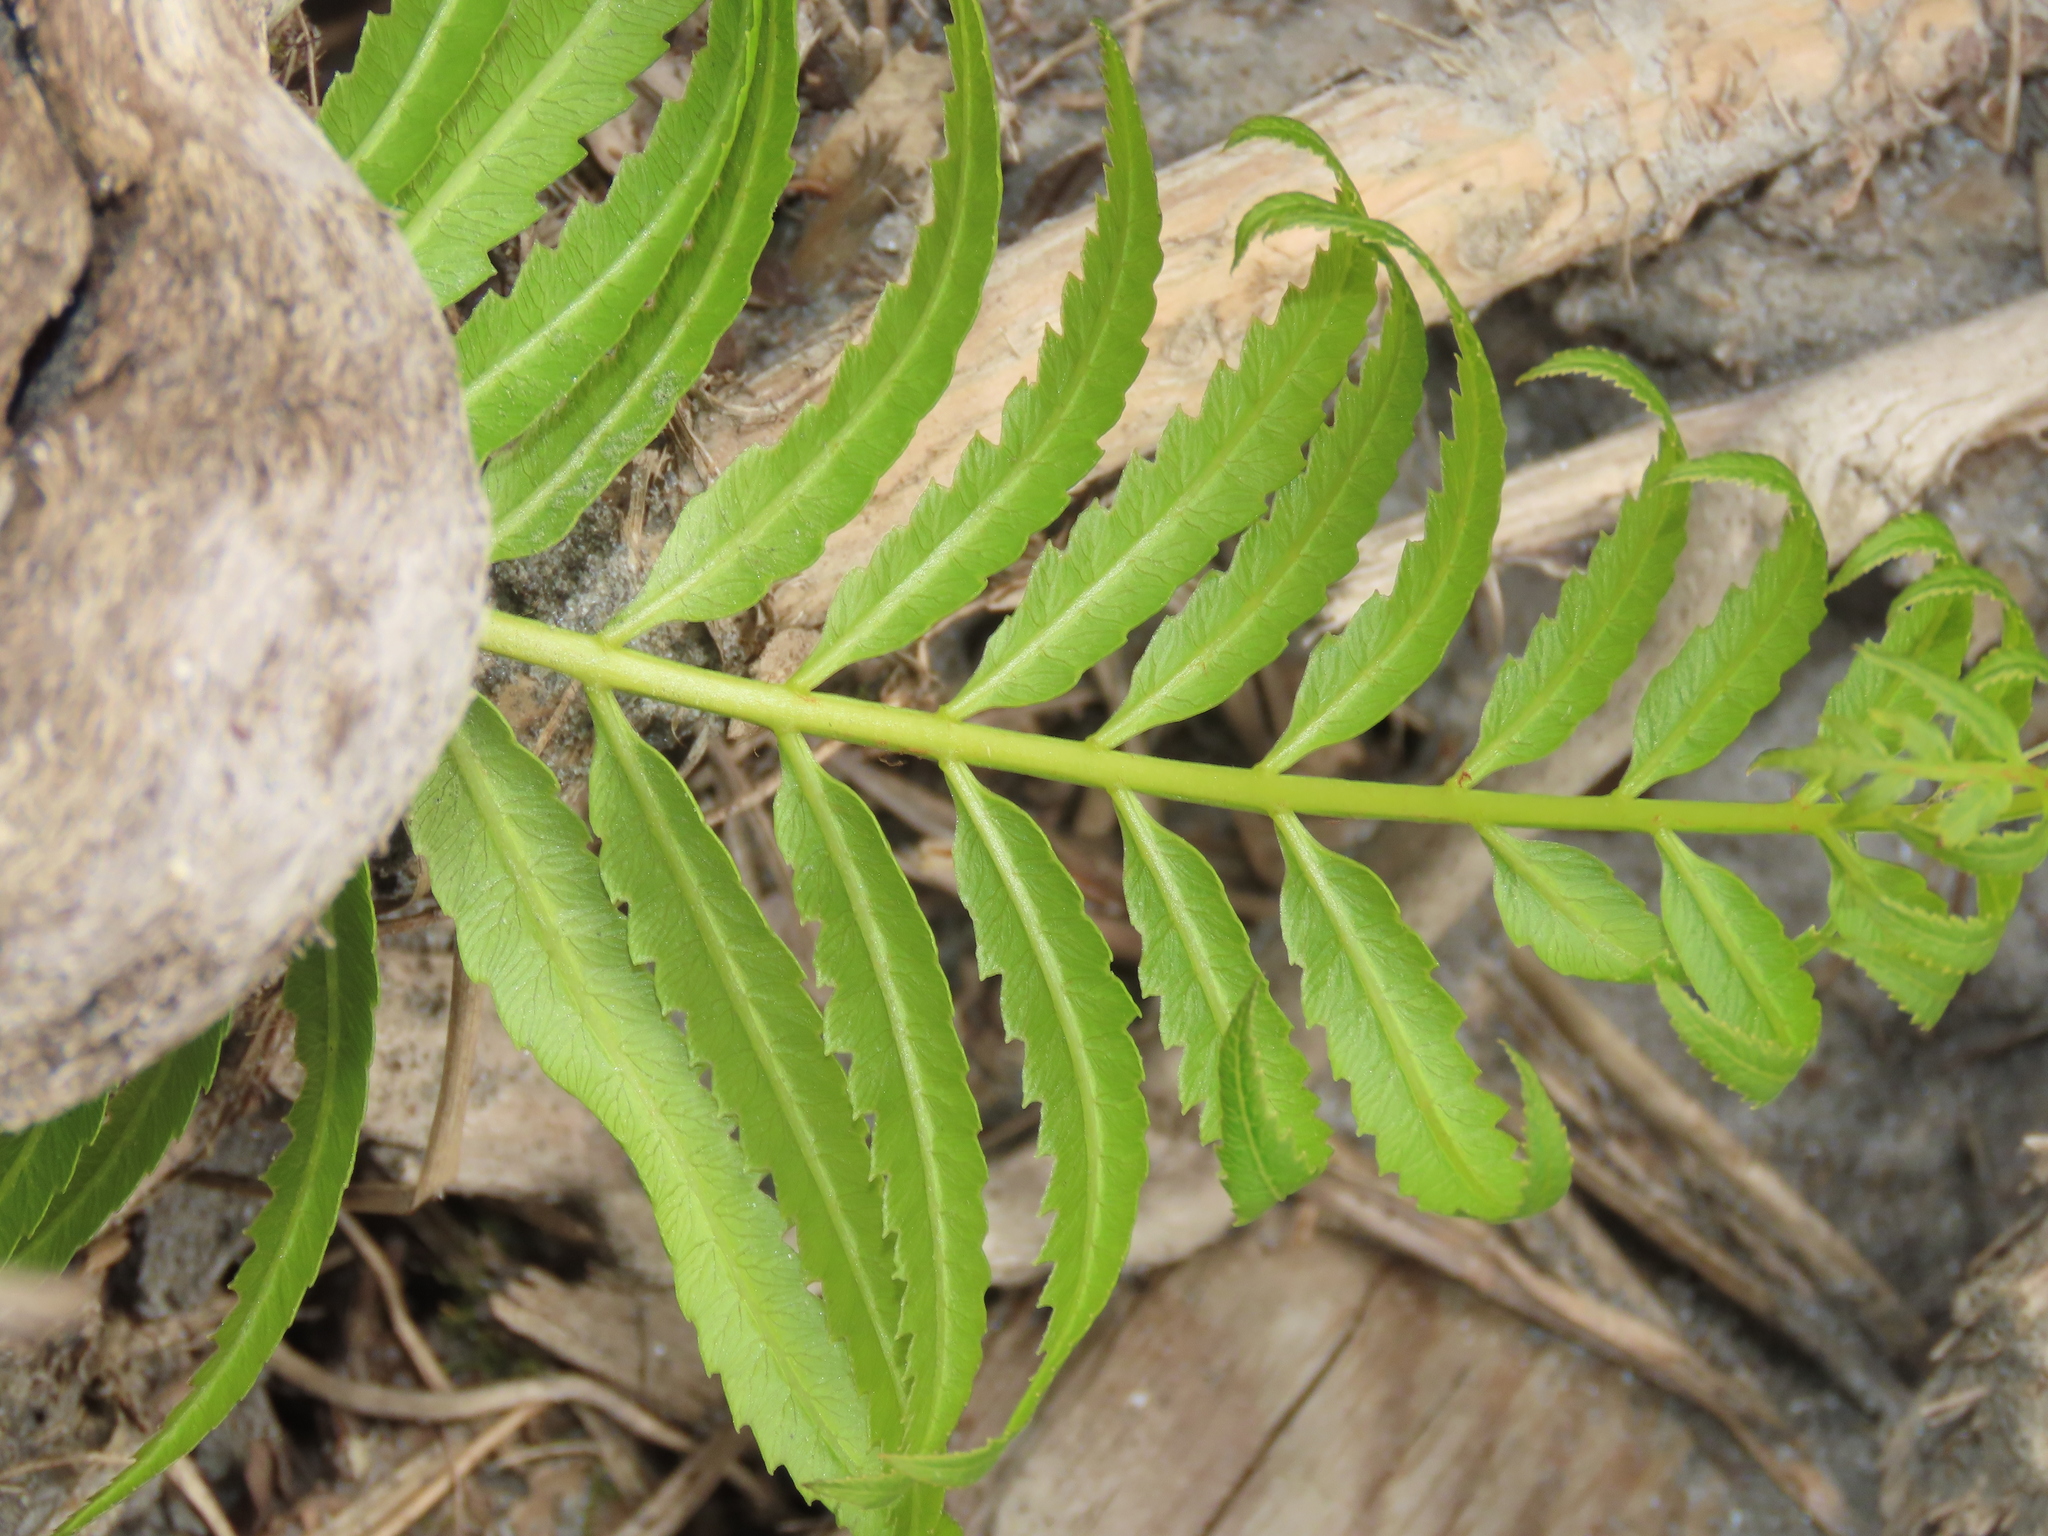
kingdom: Plantae
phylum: Tracheophyta
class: Polypodiopsida
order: Polypodiales
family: Thelypteridaceae
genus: Cyclosorus
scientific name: Cyclosorus interruptus
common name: Neke fern
